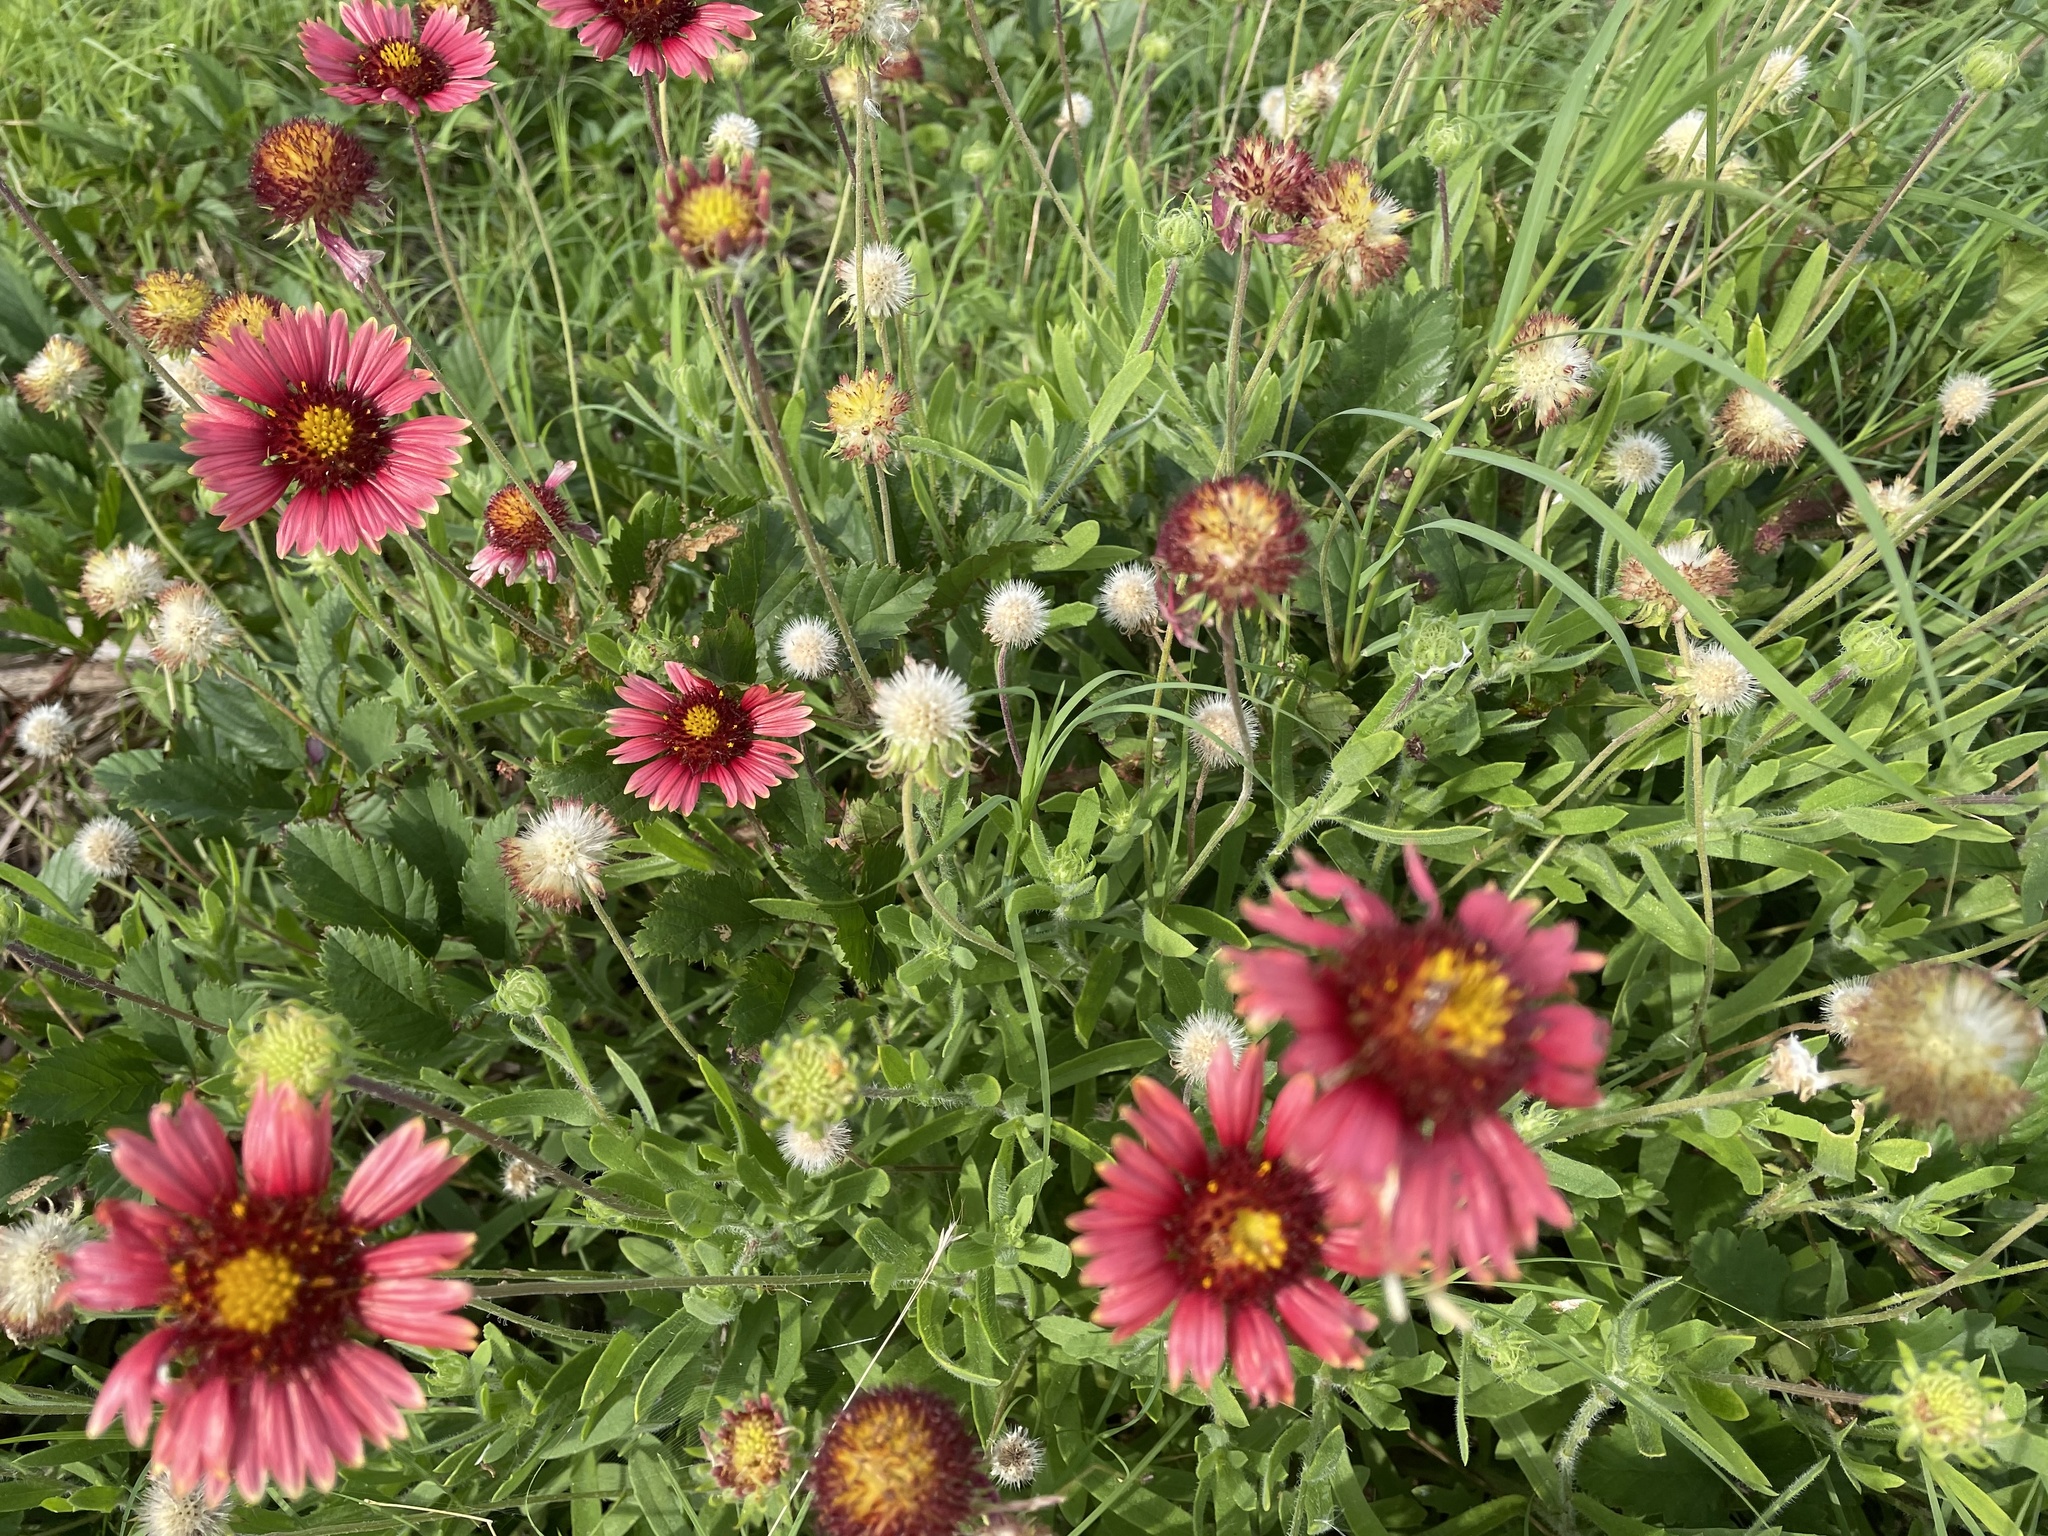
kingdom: Plantae
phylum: Tracheophyta
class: Magnoliopsida
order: Asterales
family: Asteraceae
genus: Gaillardia
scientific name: Gaillardia pulchella
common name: Firewheel
